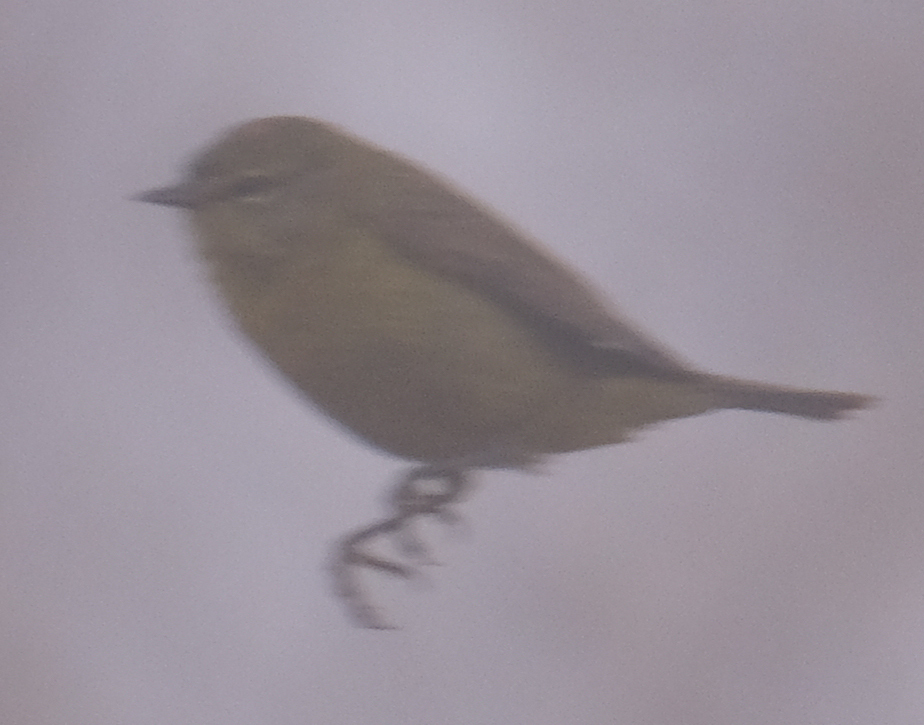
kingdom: Animalia
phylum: Chordata
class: Aves
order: Passeriformes
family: Parulidae
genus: Leiothlypis
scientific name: Leiothlypis celata
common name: Orange-crowned warbler
